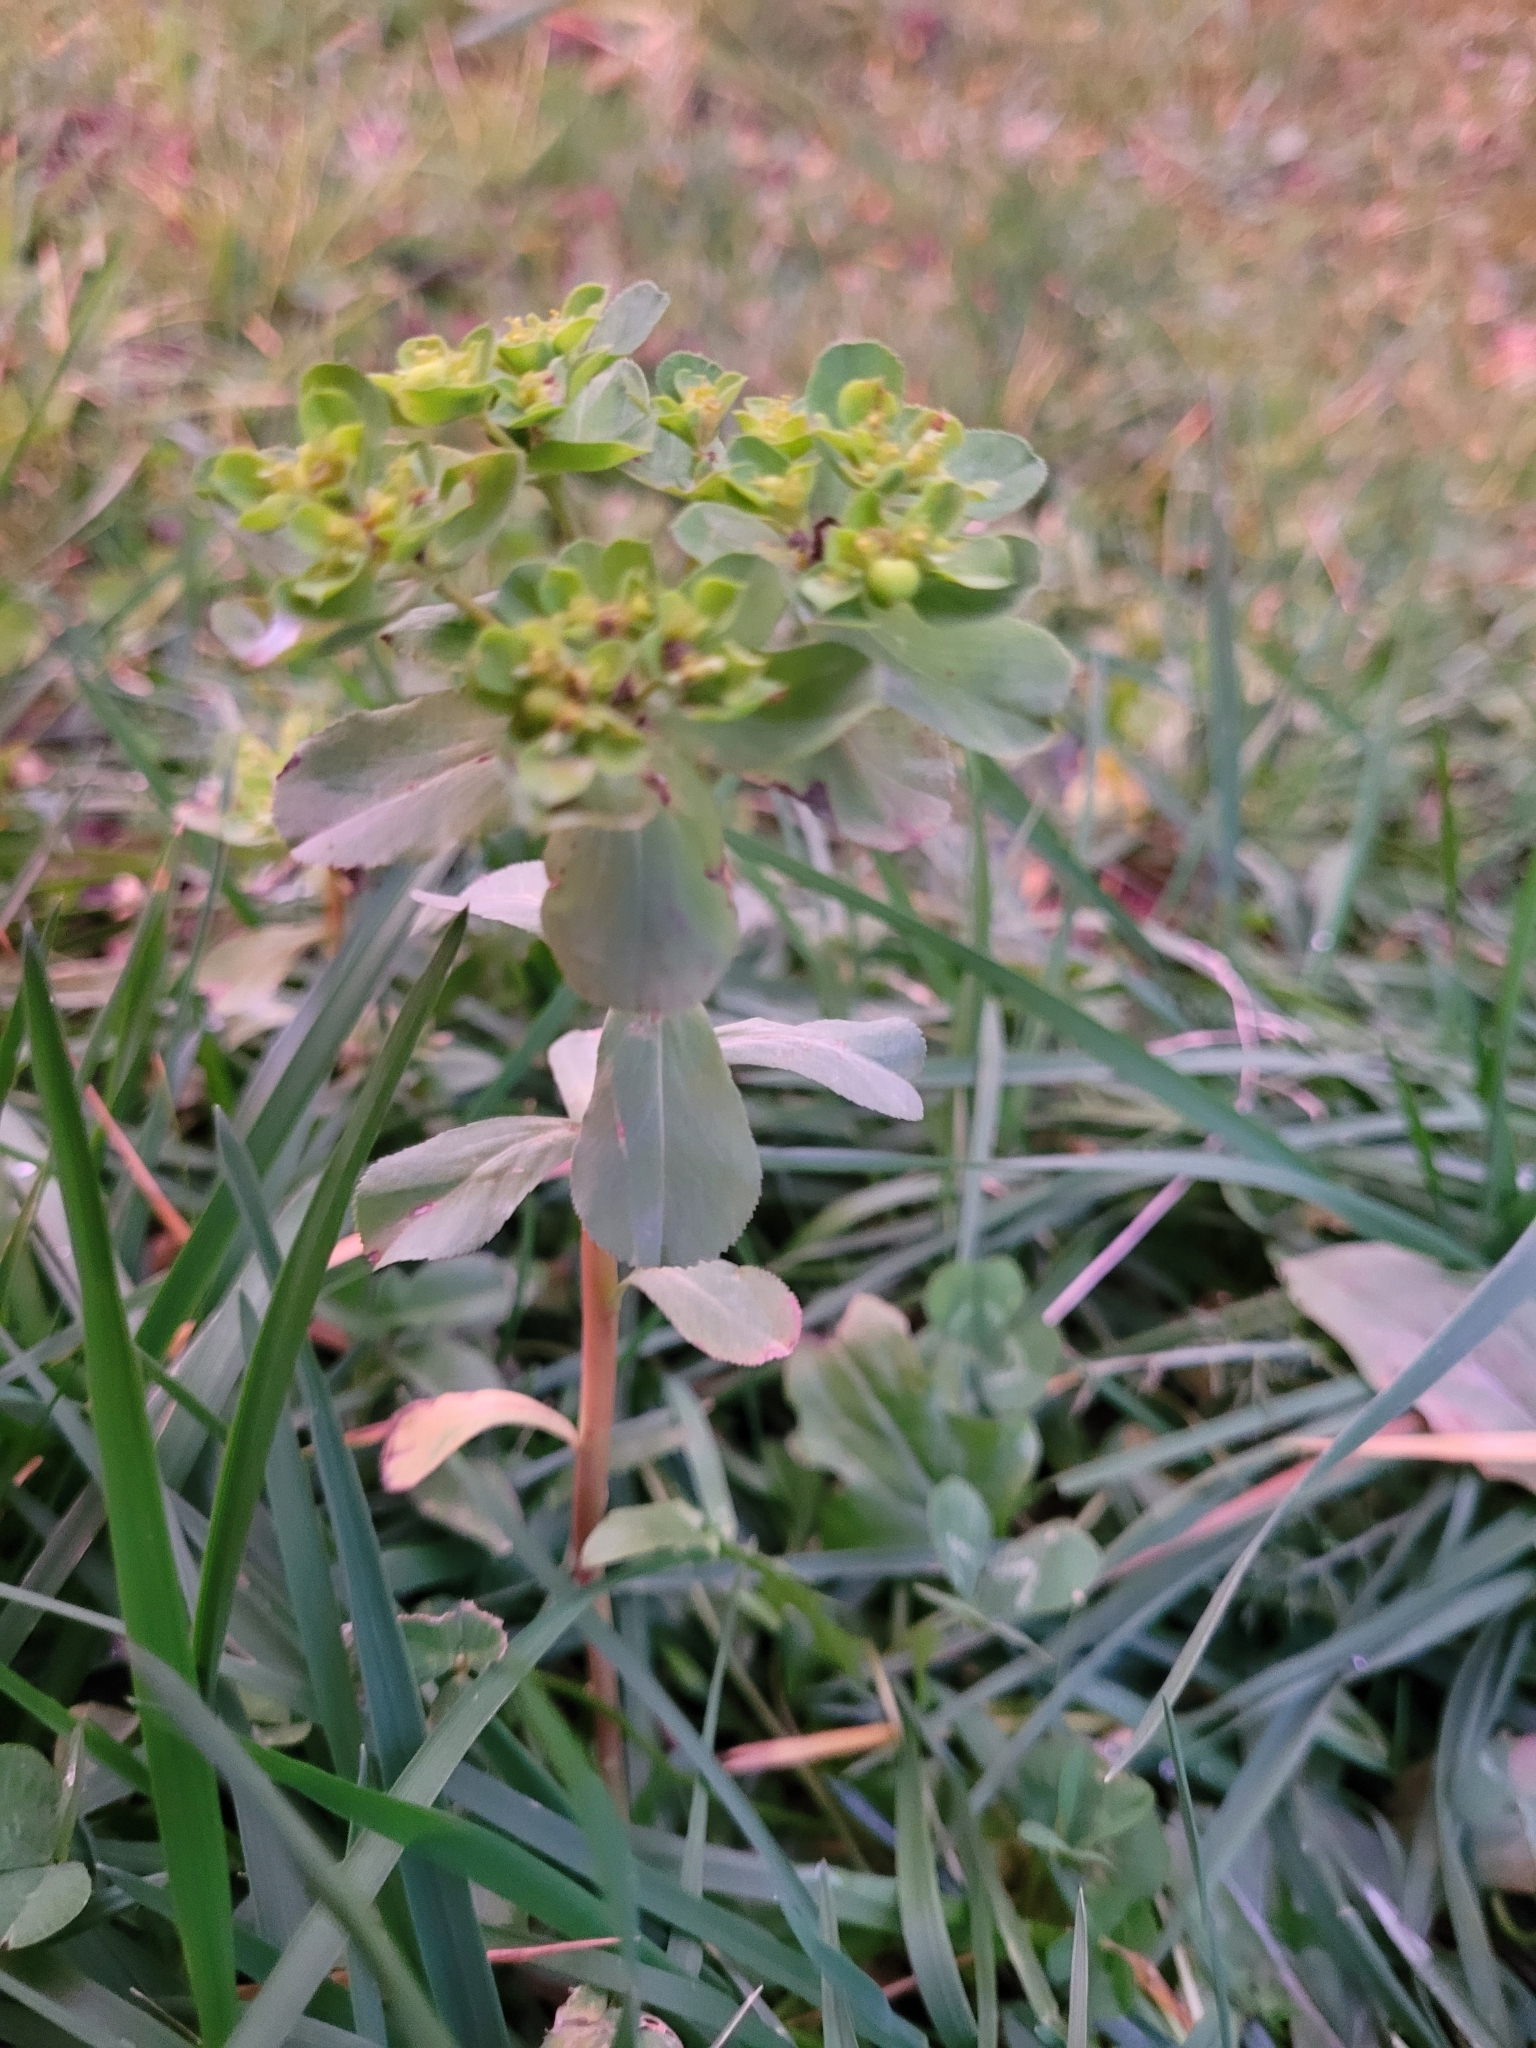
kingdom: Plantae
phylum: Tracheophyta
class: Magnoliopsida
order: Malpighiales
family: Euphorbiaceae
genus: Euphorbia
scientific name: Euphorbia helioscopia
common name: Sun spurge
